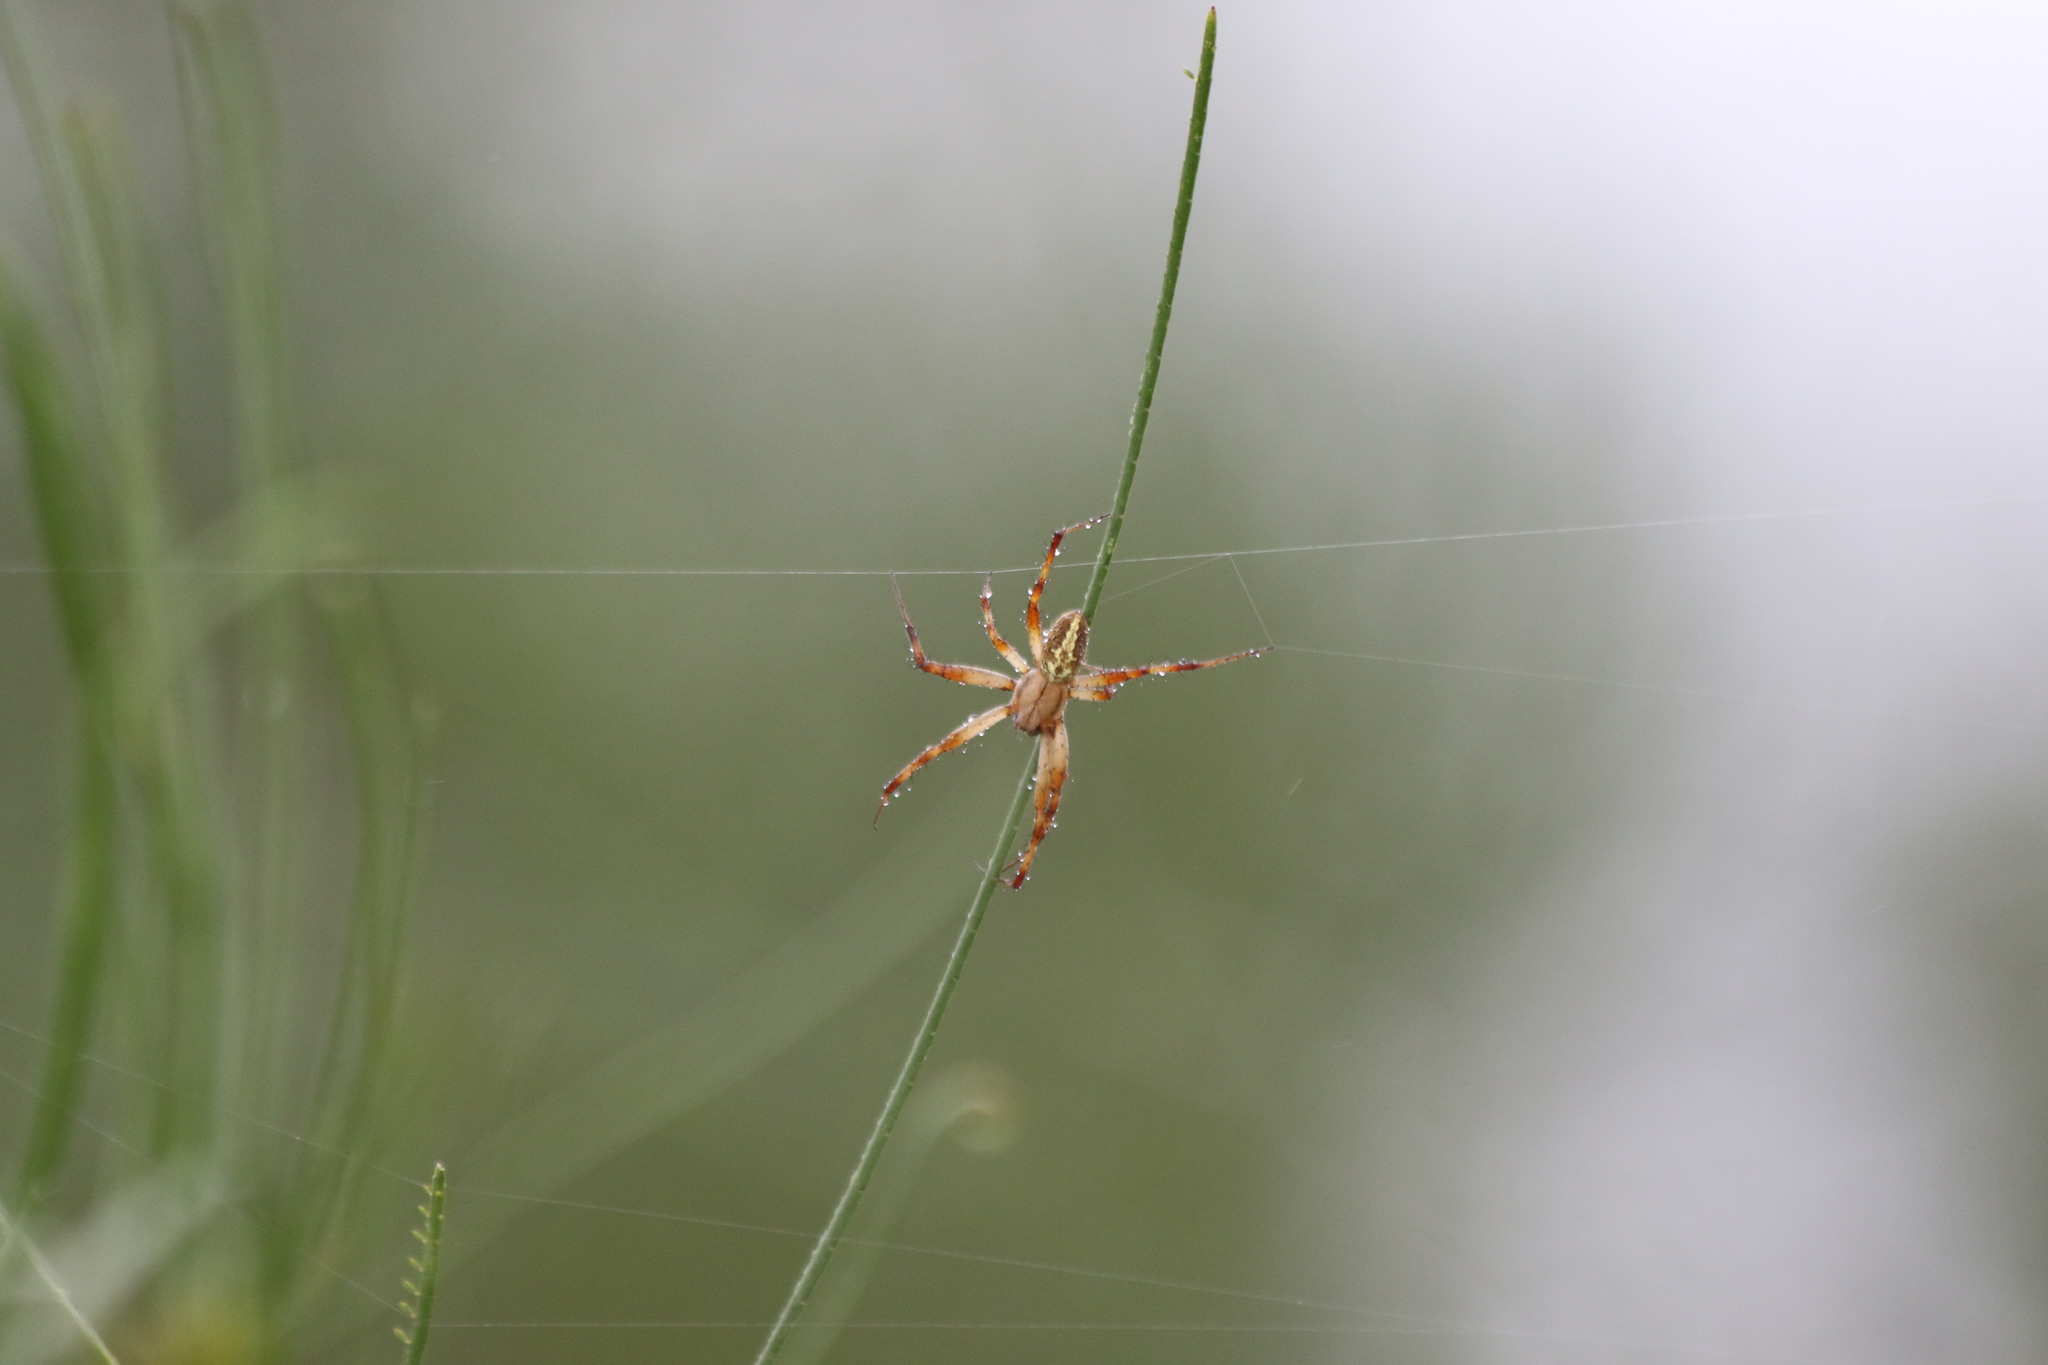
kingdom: Animalia
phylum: Arthropoda
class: Arachnida
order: Araneae
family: Araneidae
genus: Neoscona
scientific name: Neoscona oaxacensis
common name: Orb weavers
